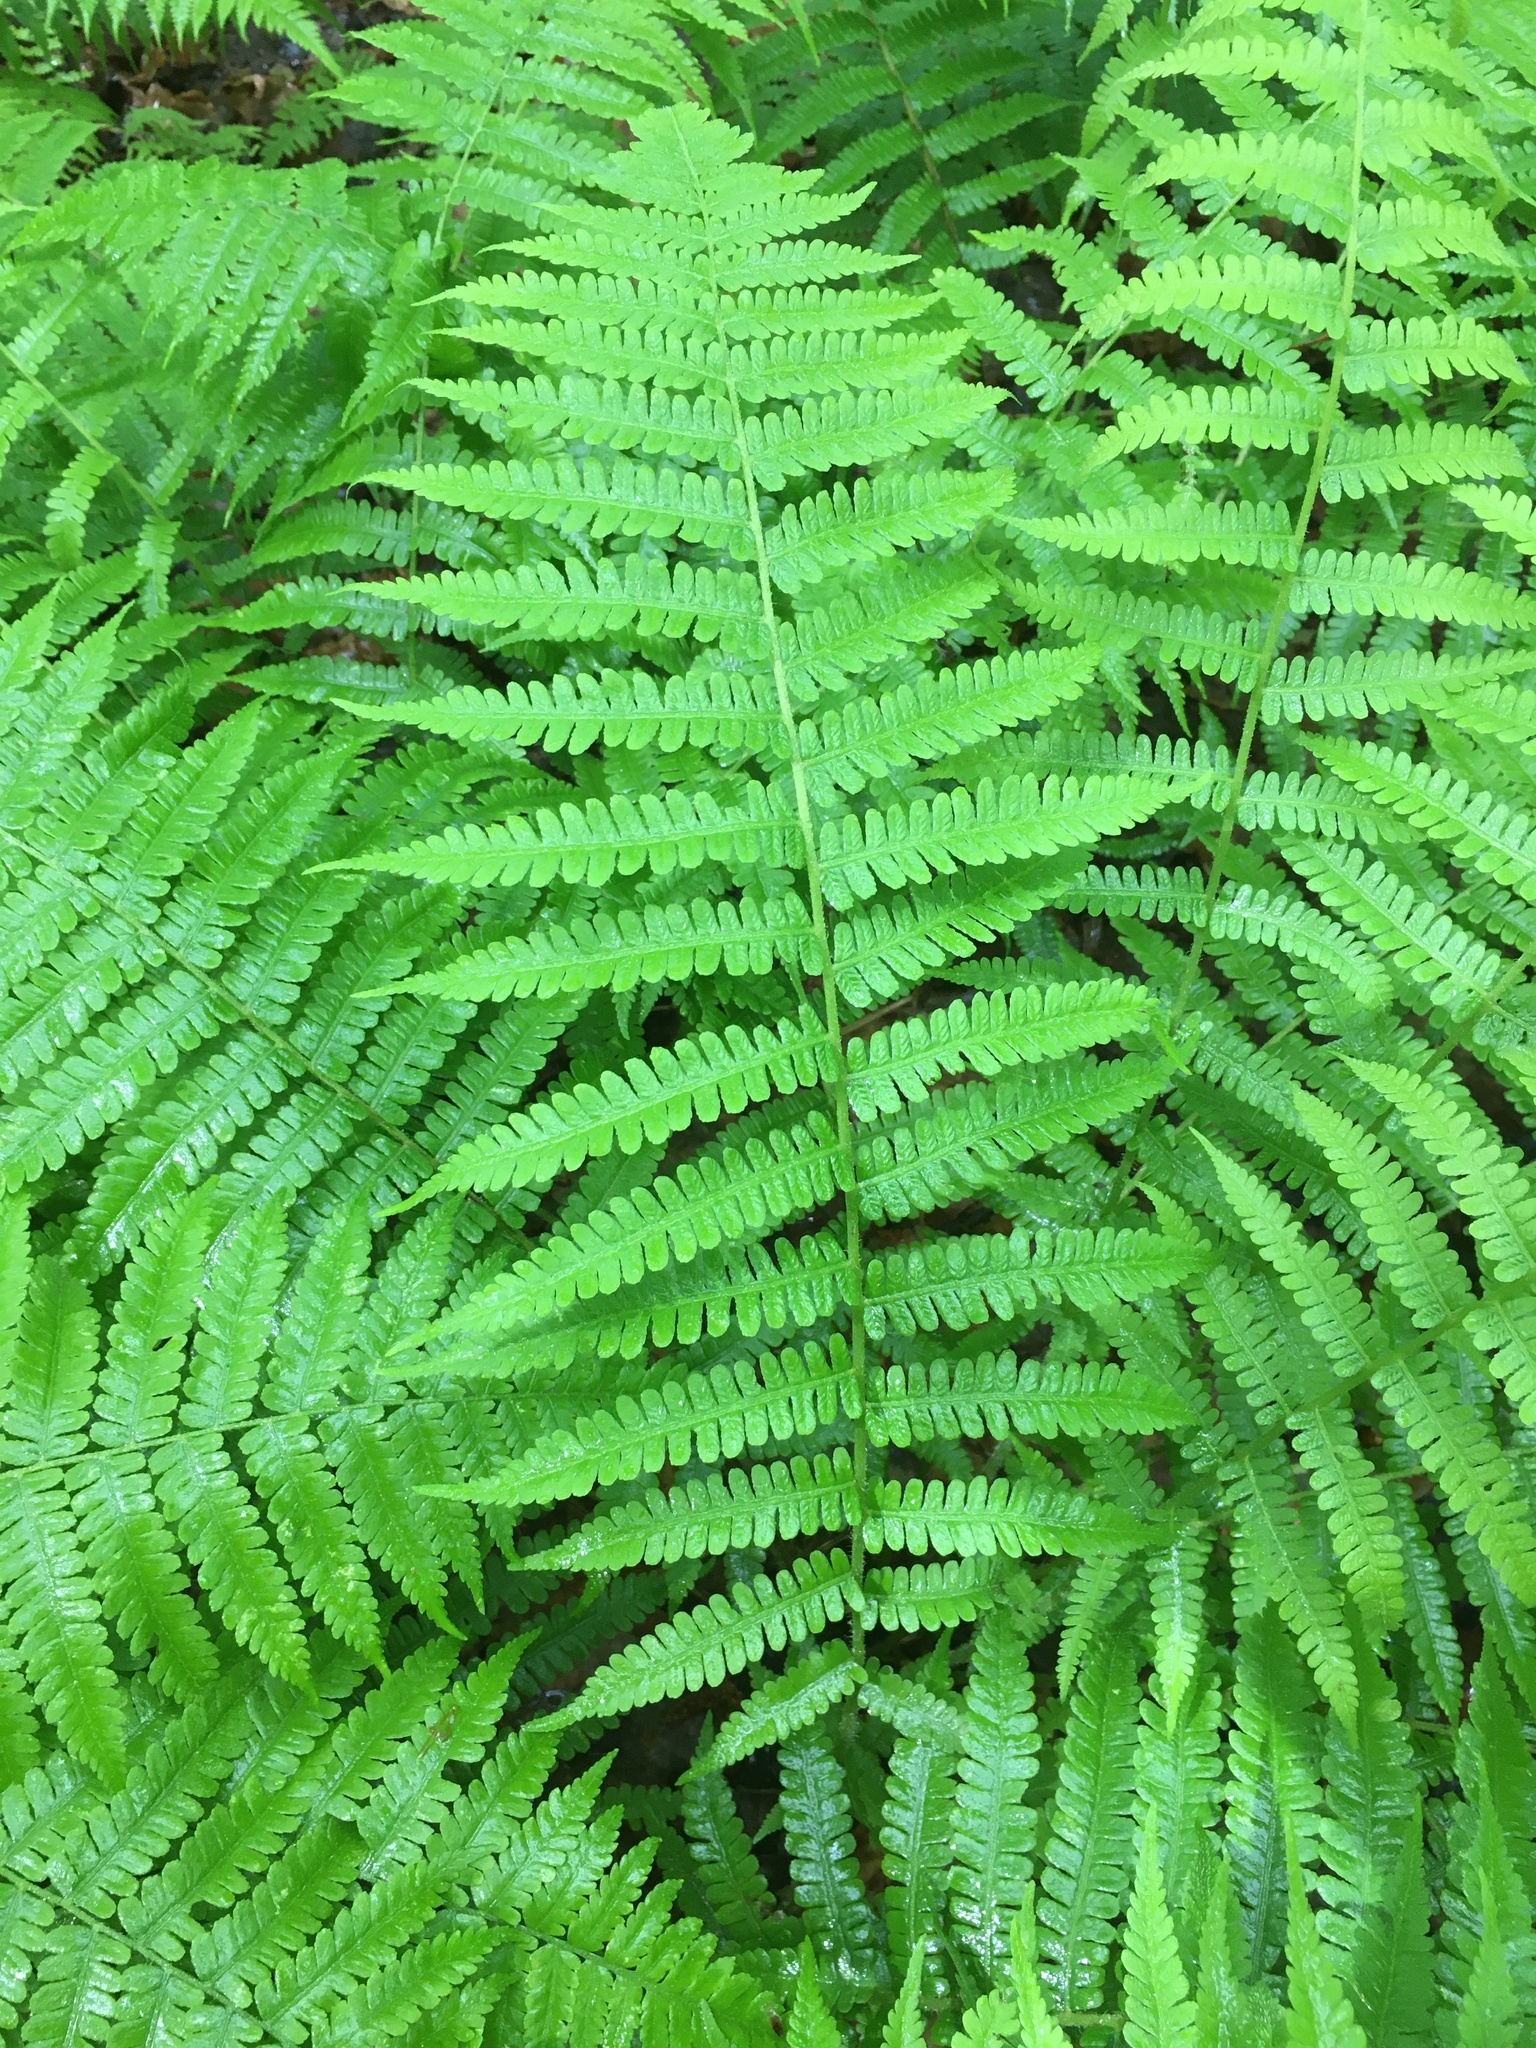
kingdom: Plantae
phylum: Tracheophyta
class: Polypodiopsida
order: Polypodiales
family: Athyriaceae
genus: Deparia
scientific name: Deparia acrostichoides
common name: Silver false spleenwort
